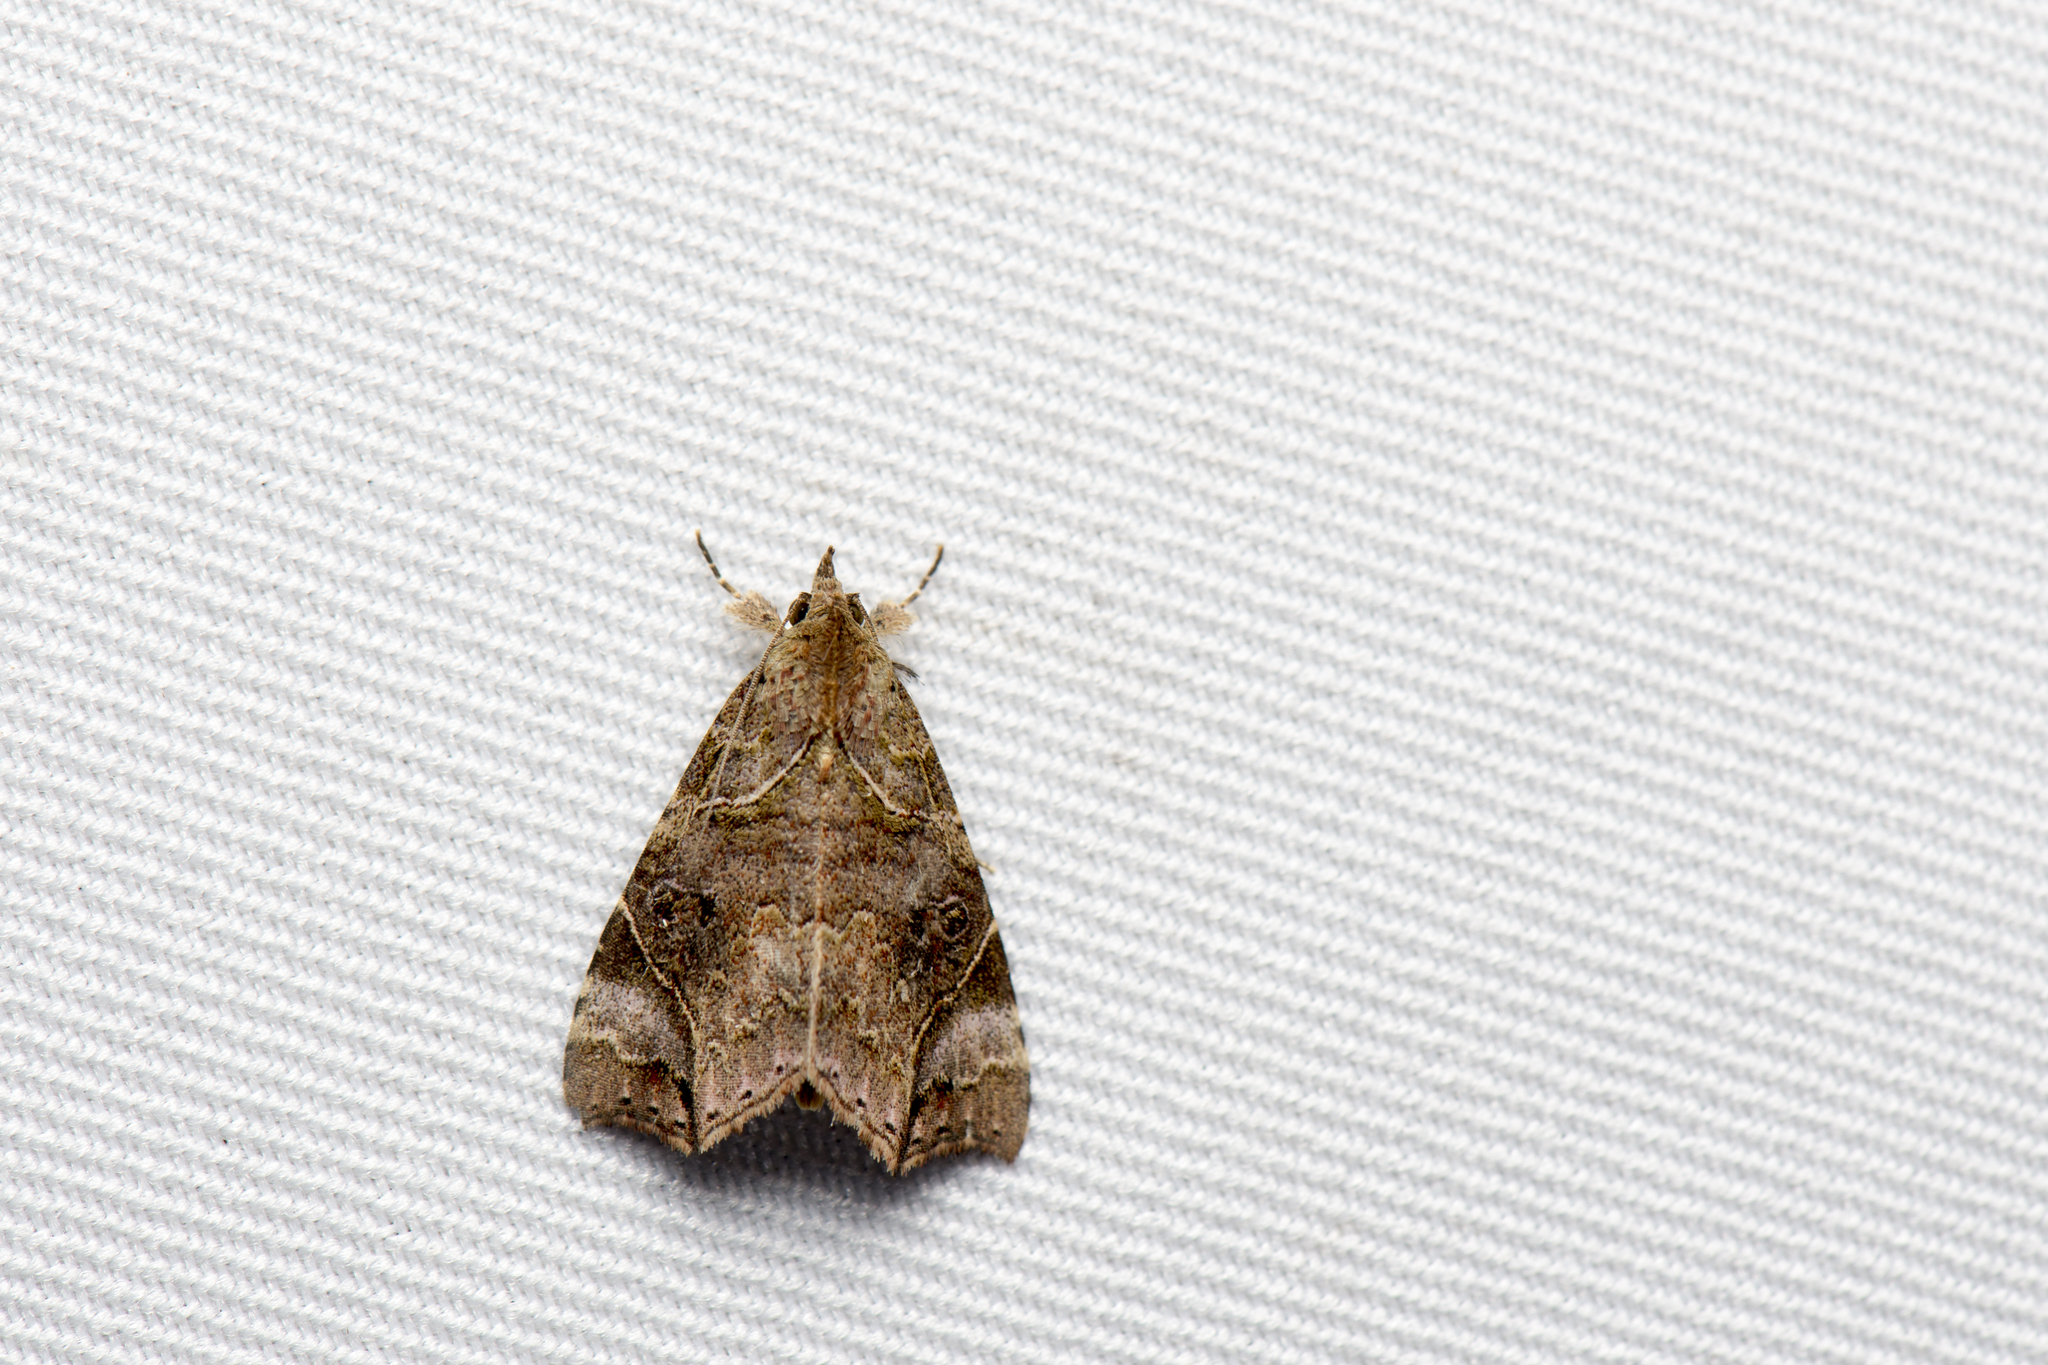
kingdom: Animalia
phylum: Arthropoda
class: Insecta
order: Lepidoptera
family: Erebidae
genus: Parolulis
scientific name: Parolulis renalis
